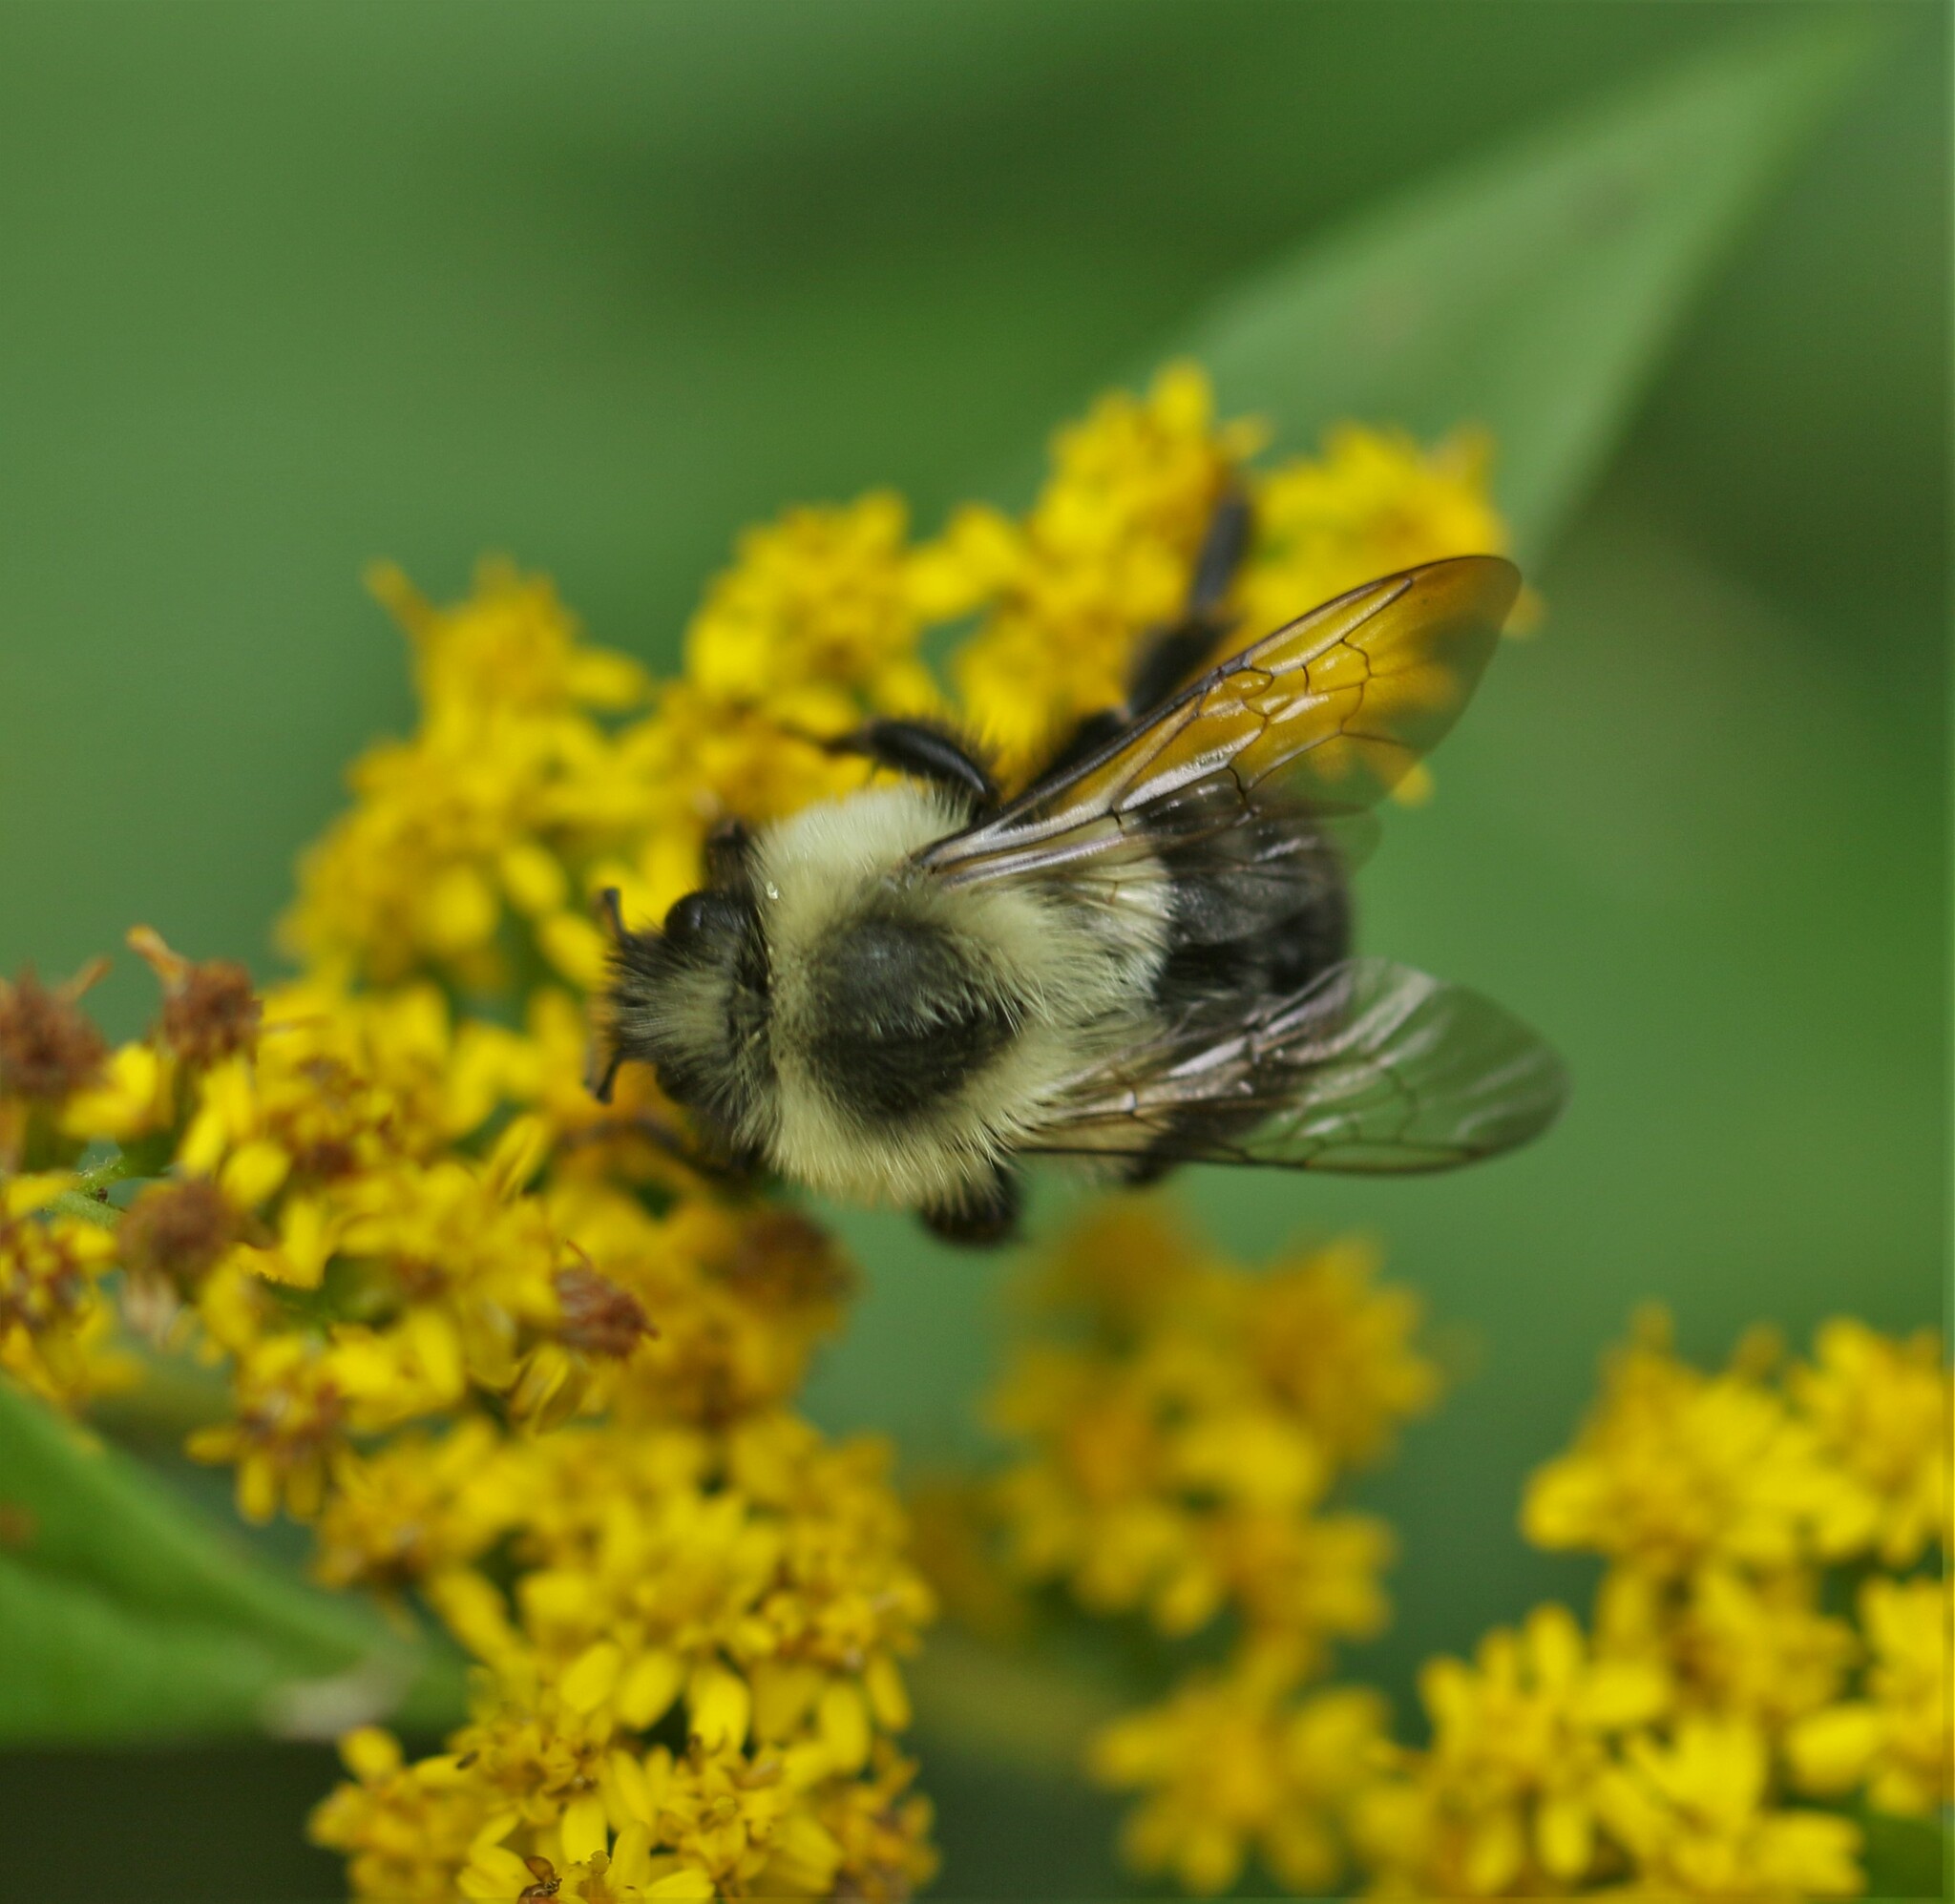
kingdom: Animalia
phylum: Arthropoda
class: Insecta
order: Hymenoptera
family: Apidae
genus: Bombus
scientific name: Bombus impatiens
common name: Common eastern bumble bee
